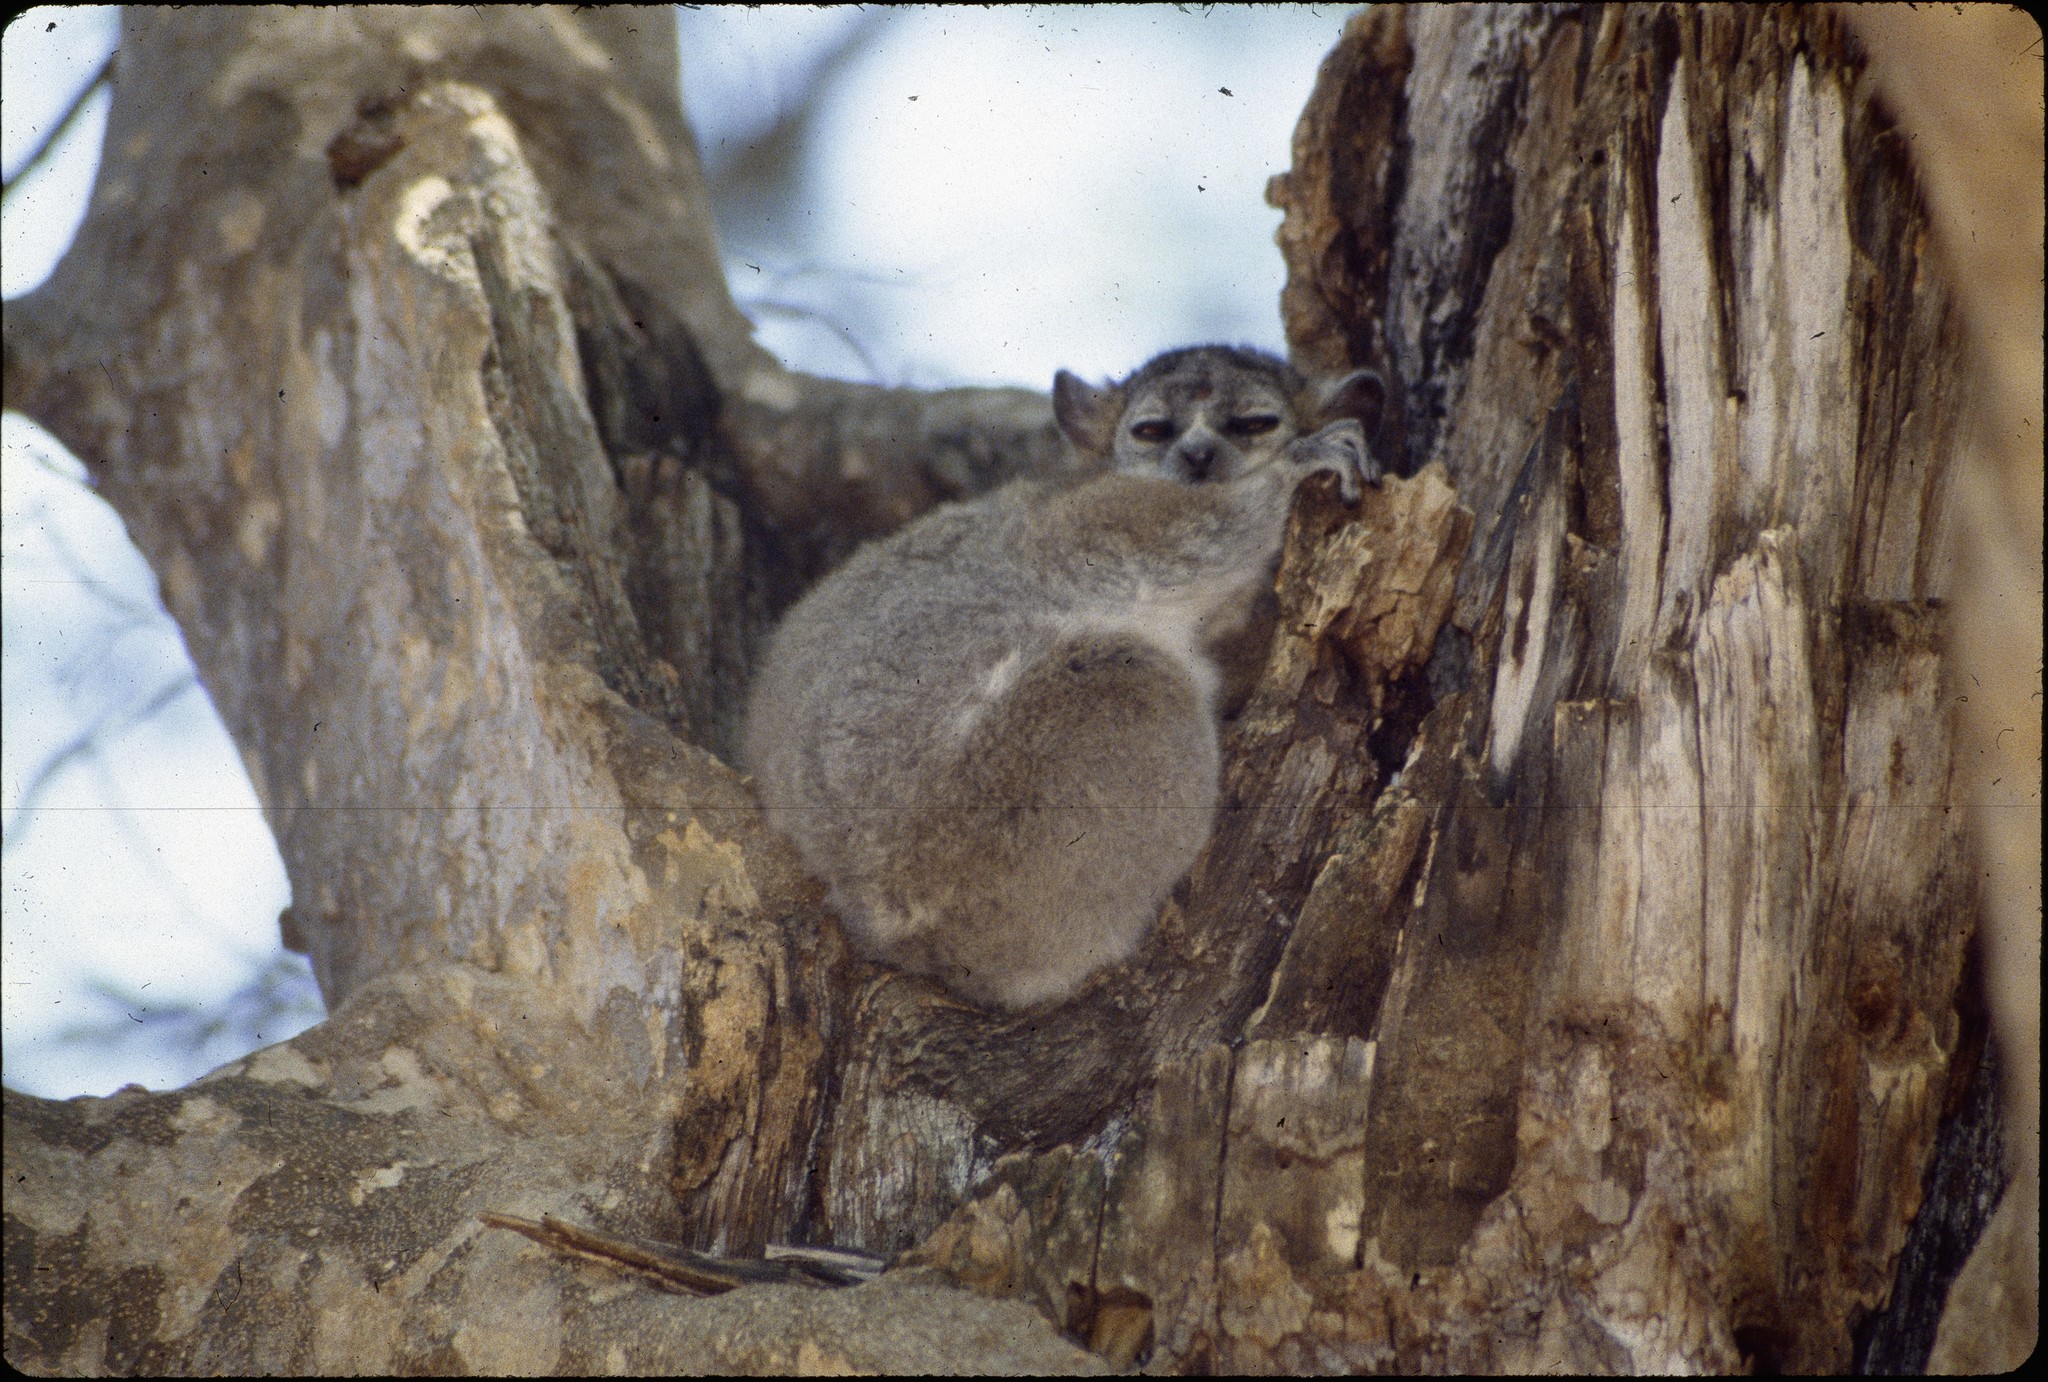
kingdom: Animalia
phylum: Chordata
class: Mammalia
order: Primates
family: Lepilemuridae
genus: Lepilemur
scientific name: Lepilemur leucopus
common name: White-footed sportive lemur
